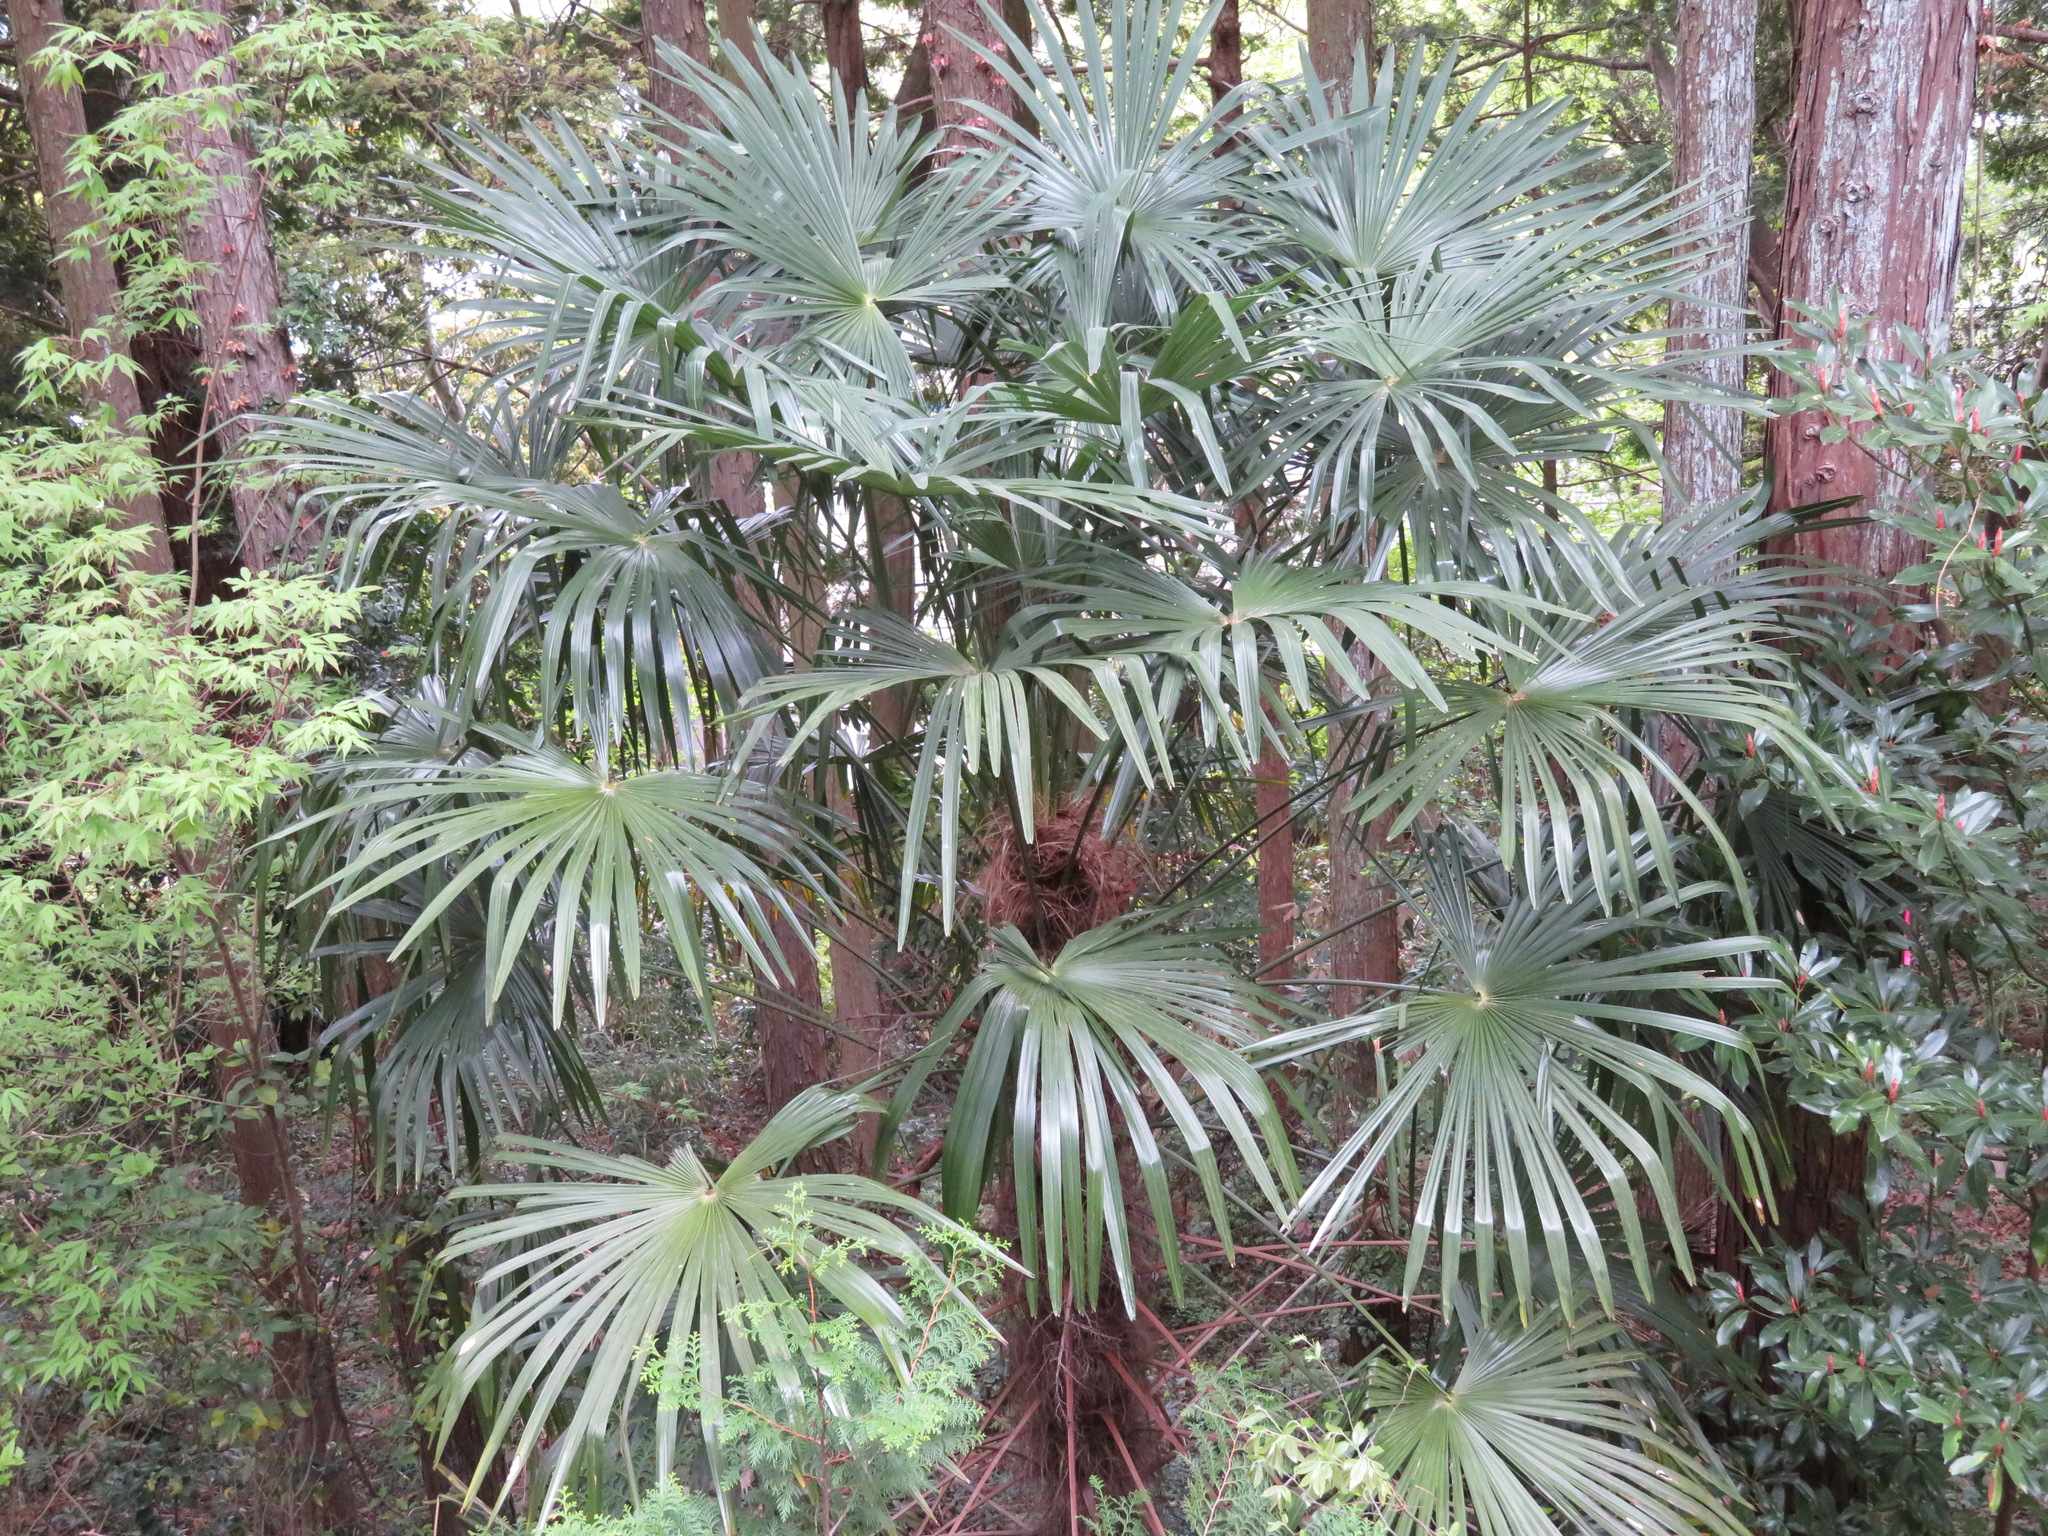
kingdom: Plantae
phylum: Tracheophyta
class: Liliopsida
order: Arecales
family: Arecaceae
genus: Trachycarpus
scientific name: Trachycarpus fortunei
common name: Chusan palm
